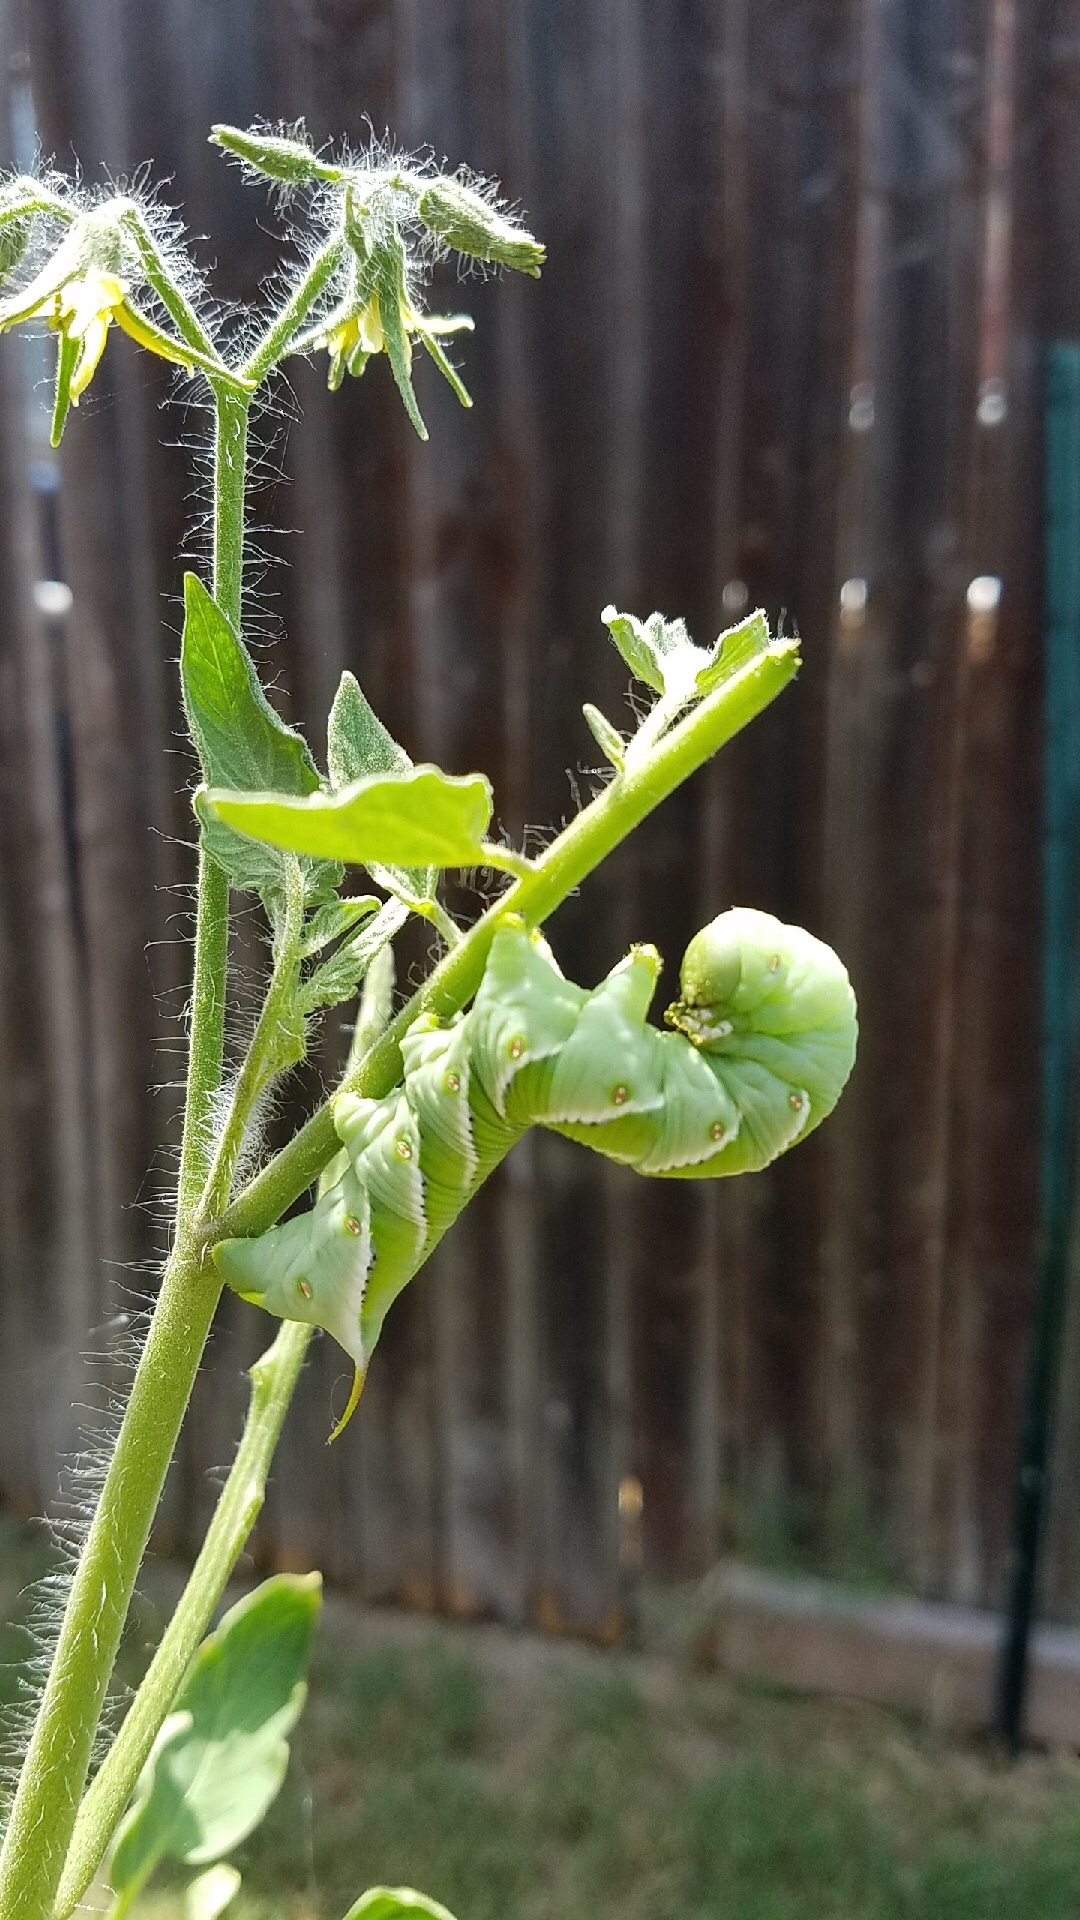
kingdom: Animalia
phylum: Arthropoda
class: Insecta
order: Lepidoptera
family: Sphingidae
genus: Manduca
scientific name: Manduca sexta
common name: Carolina sphinx
